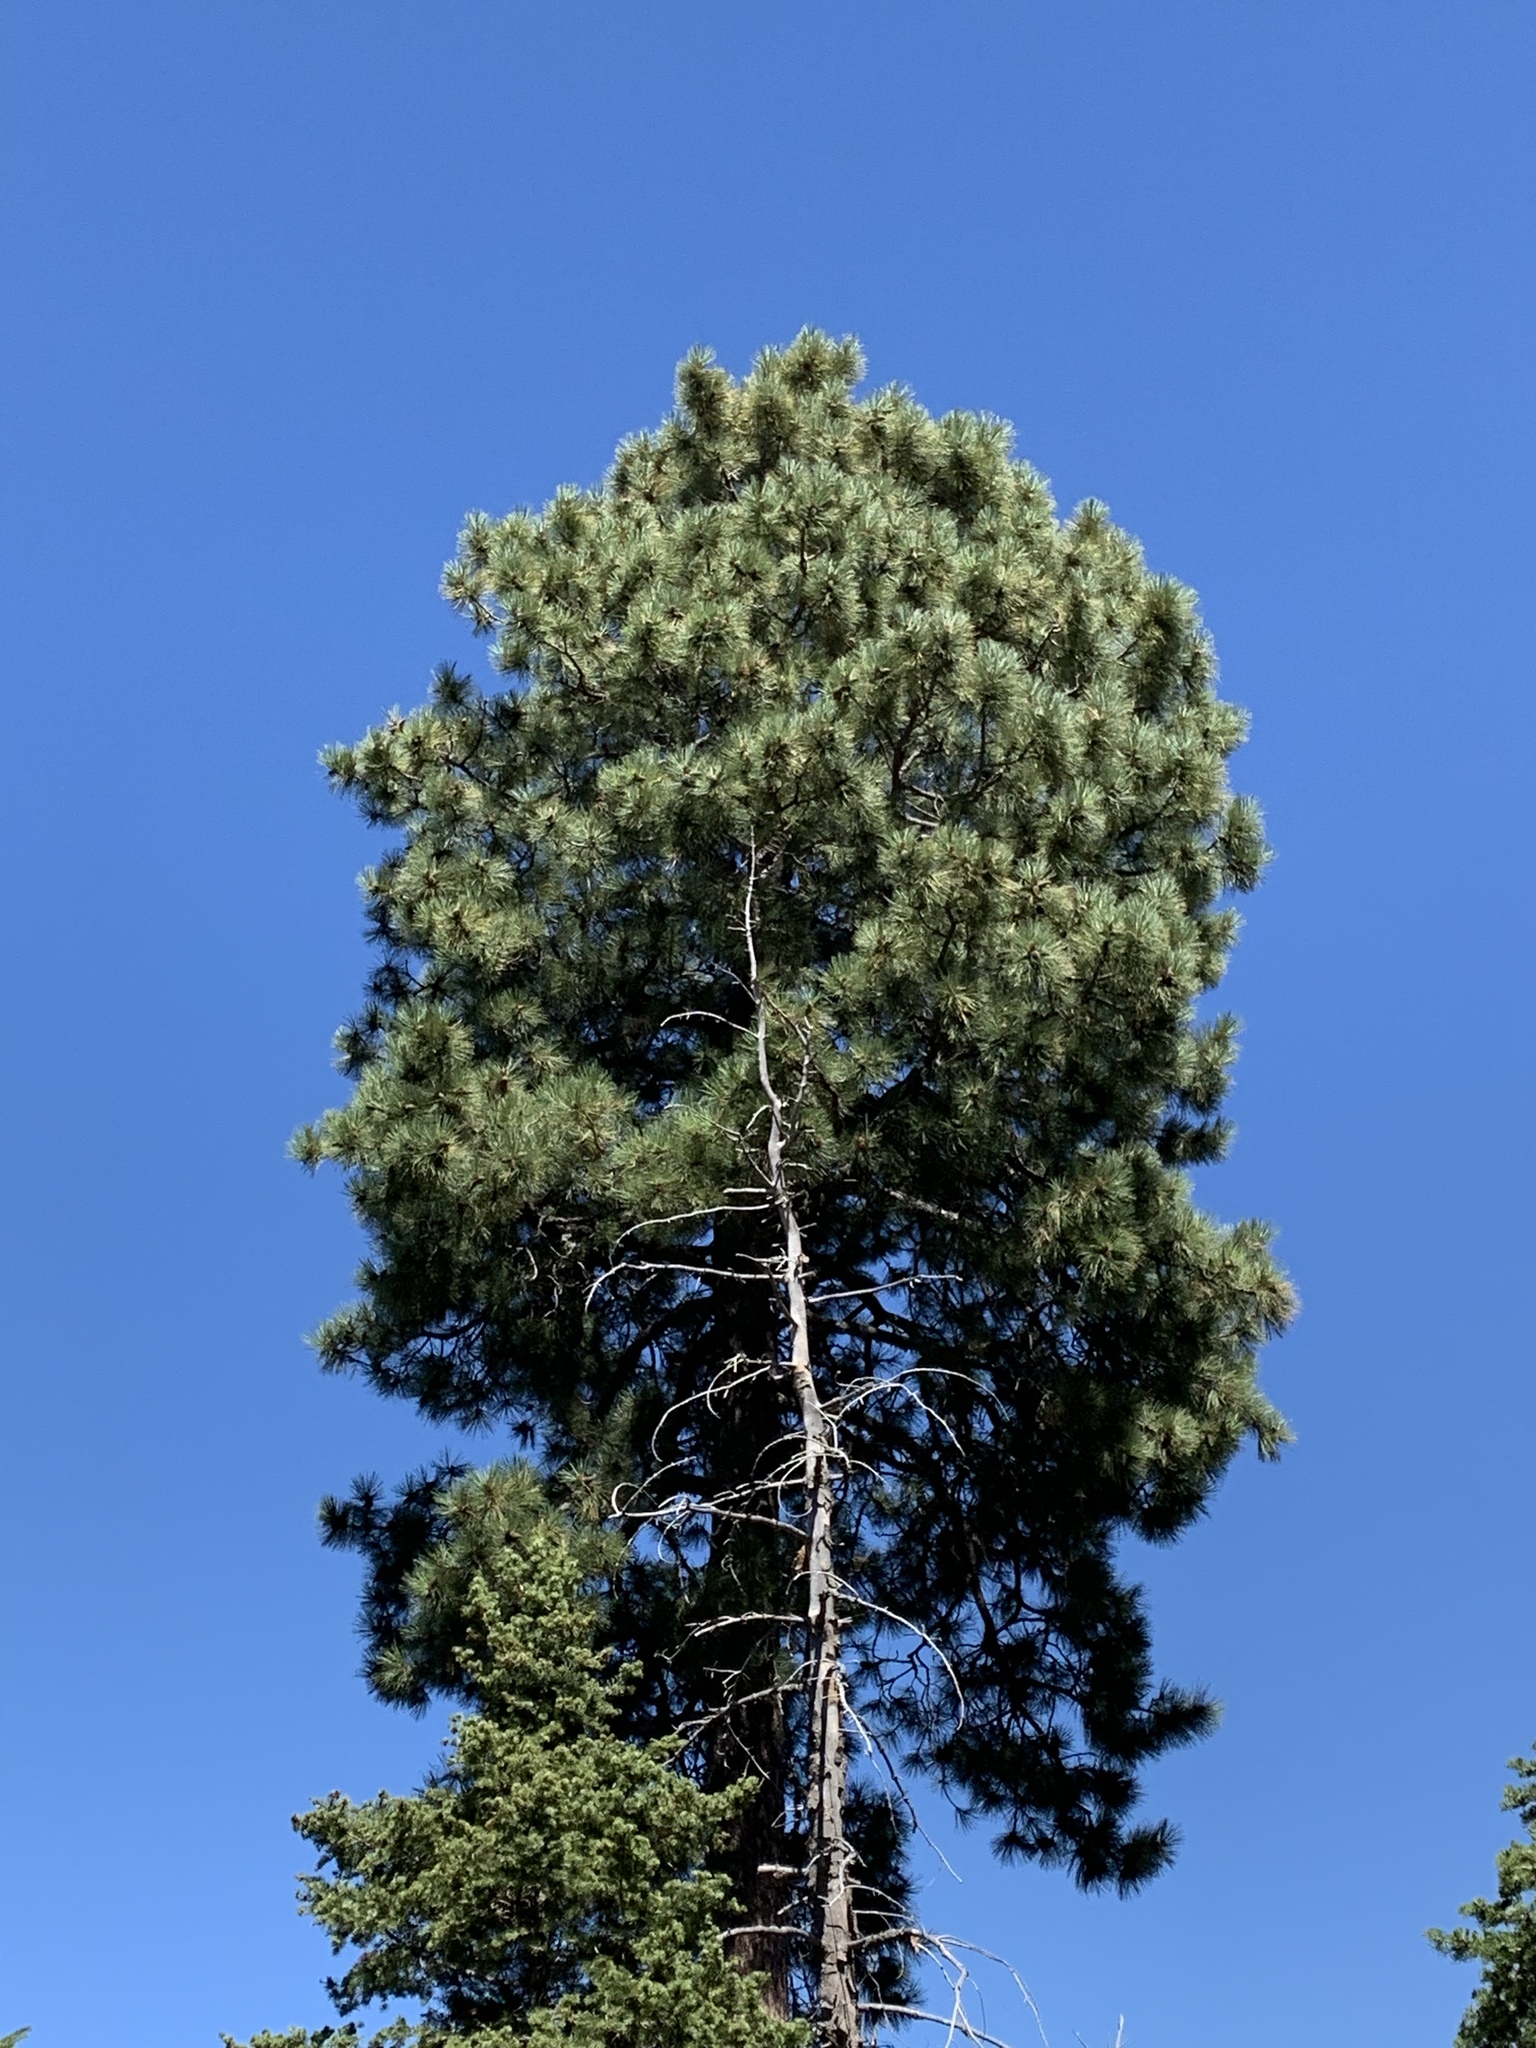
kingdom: Plantae
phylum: Tracheophyta
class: Pinopsida
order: Pinales
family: Pinaceae
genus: Pinus
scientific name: Pinus ponderosa
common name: Western yellow-pine
